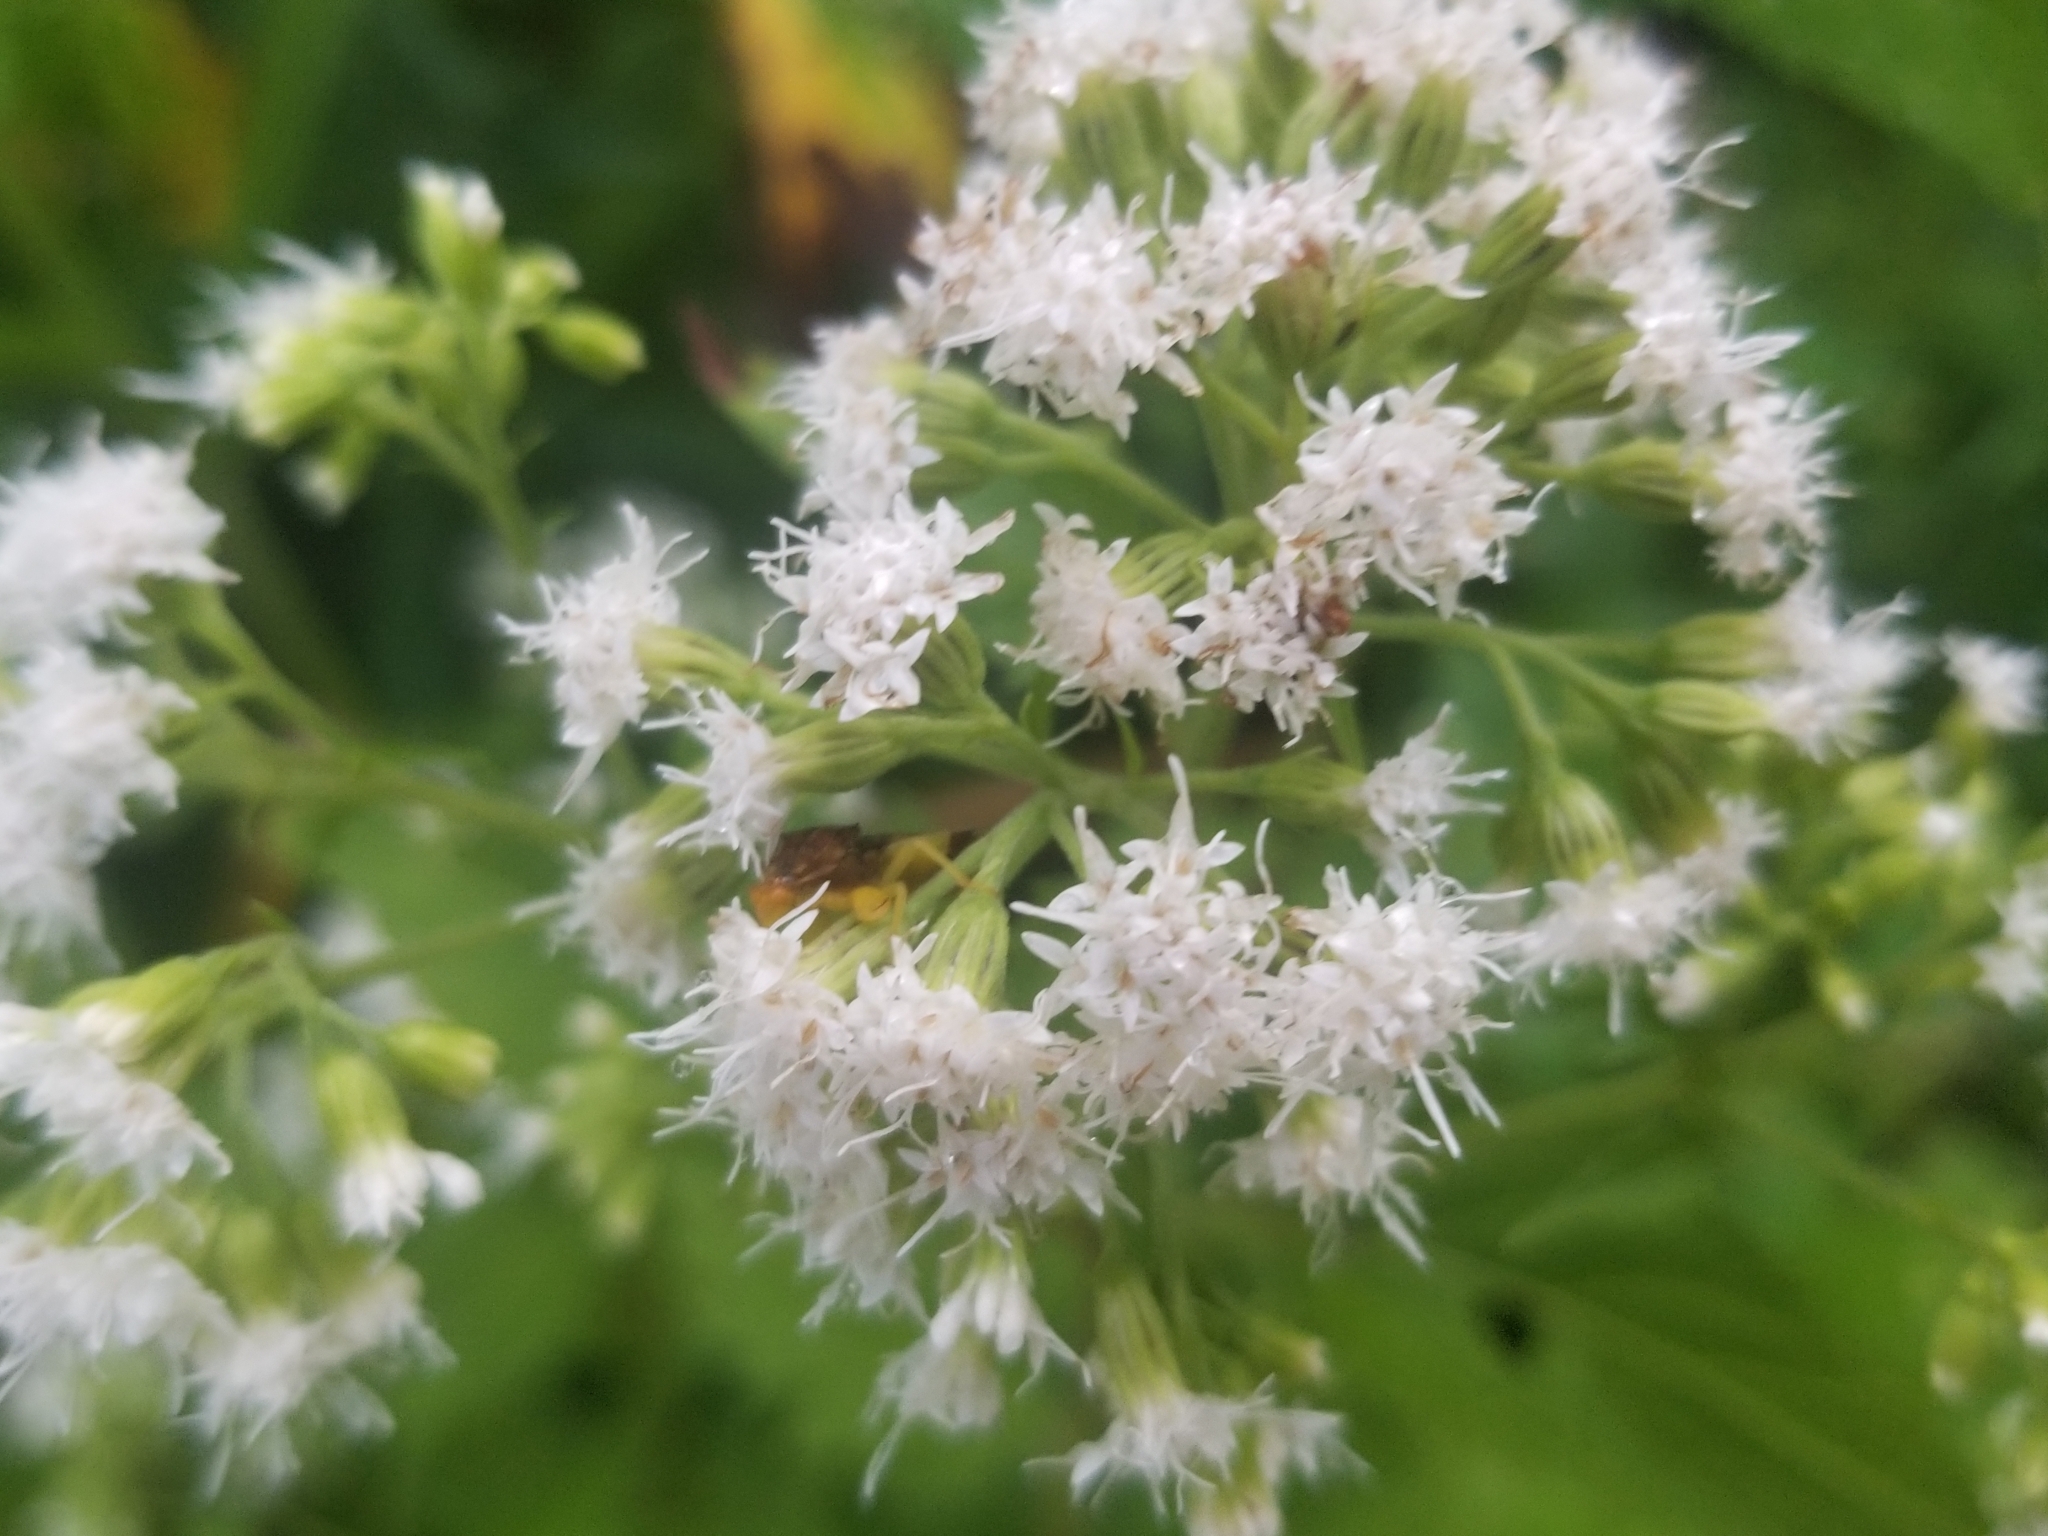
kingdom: Animalia
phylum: Arthropoda
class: Insecta
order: Hemiptera
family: Reduviidae
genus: Phymata
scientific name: Phymata pennsylvanica
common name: Pennsylvania ambush bug
